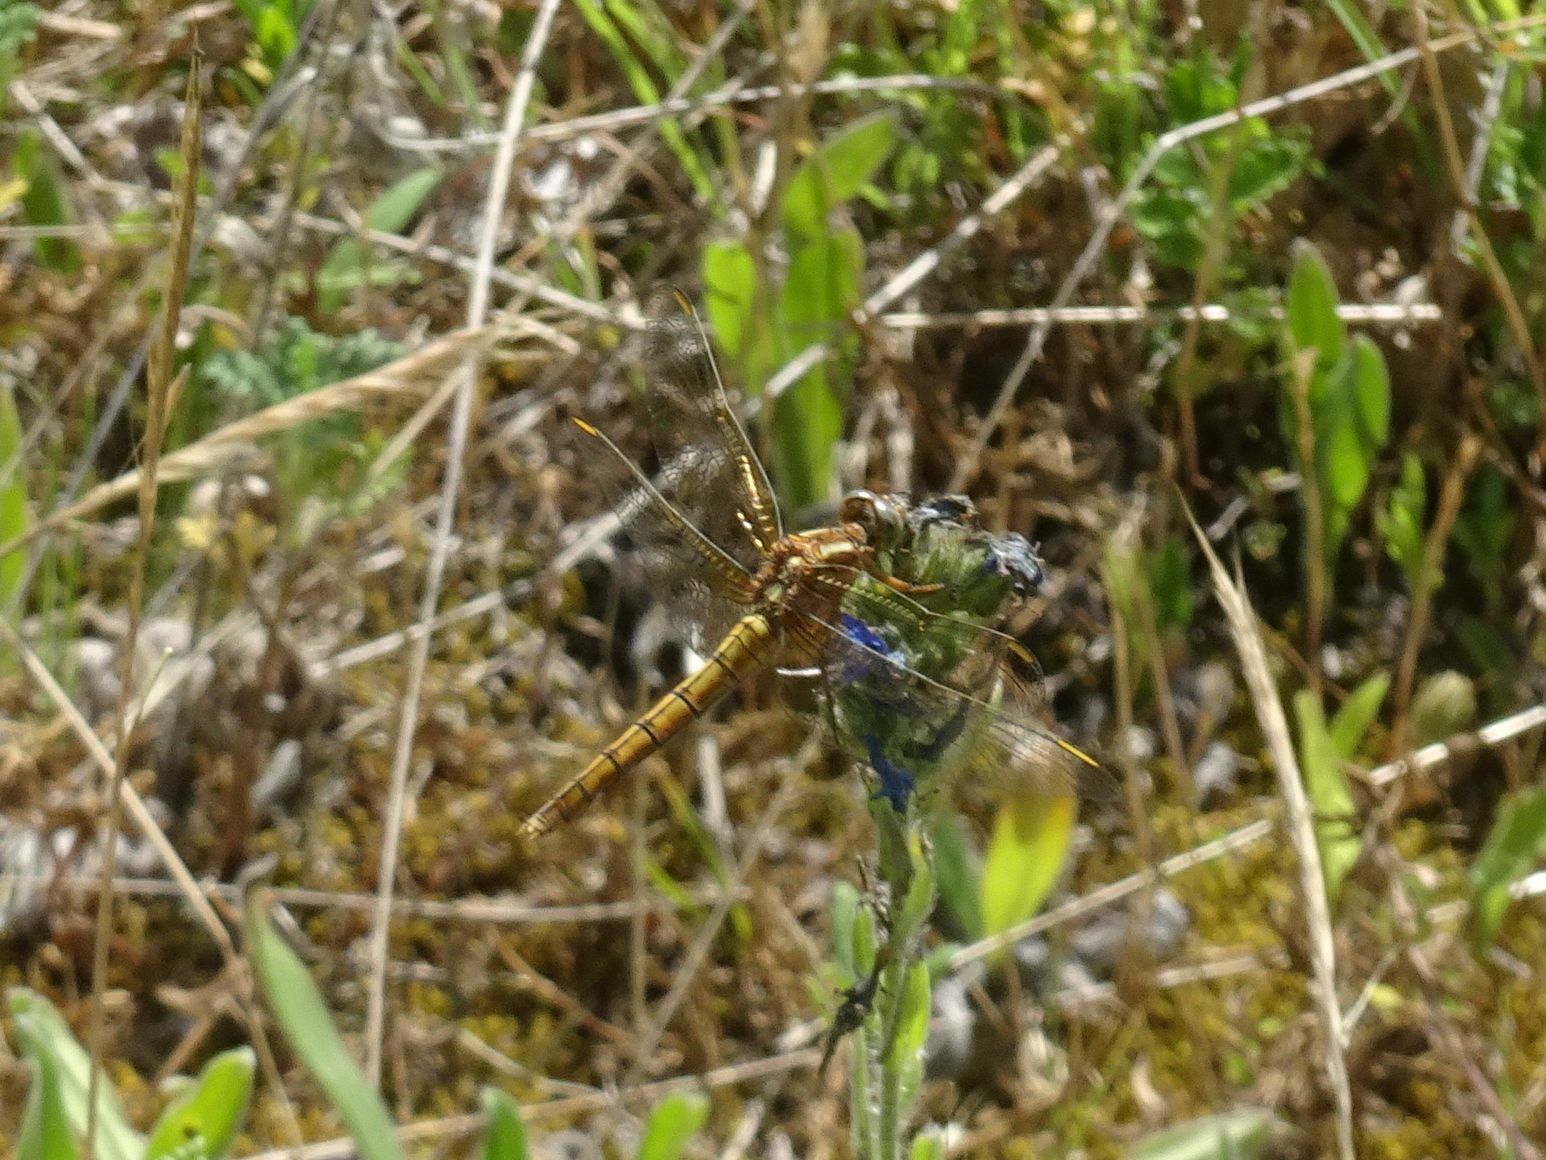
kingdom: Animalia
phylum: Arthropoda
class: Insecta
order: Odonata
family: Libellulidae
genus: Orthetrum
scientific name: Orthetrum coerulescens
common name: Keeled skimmer
